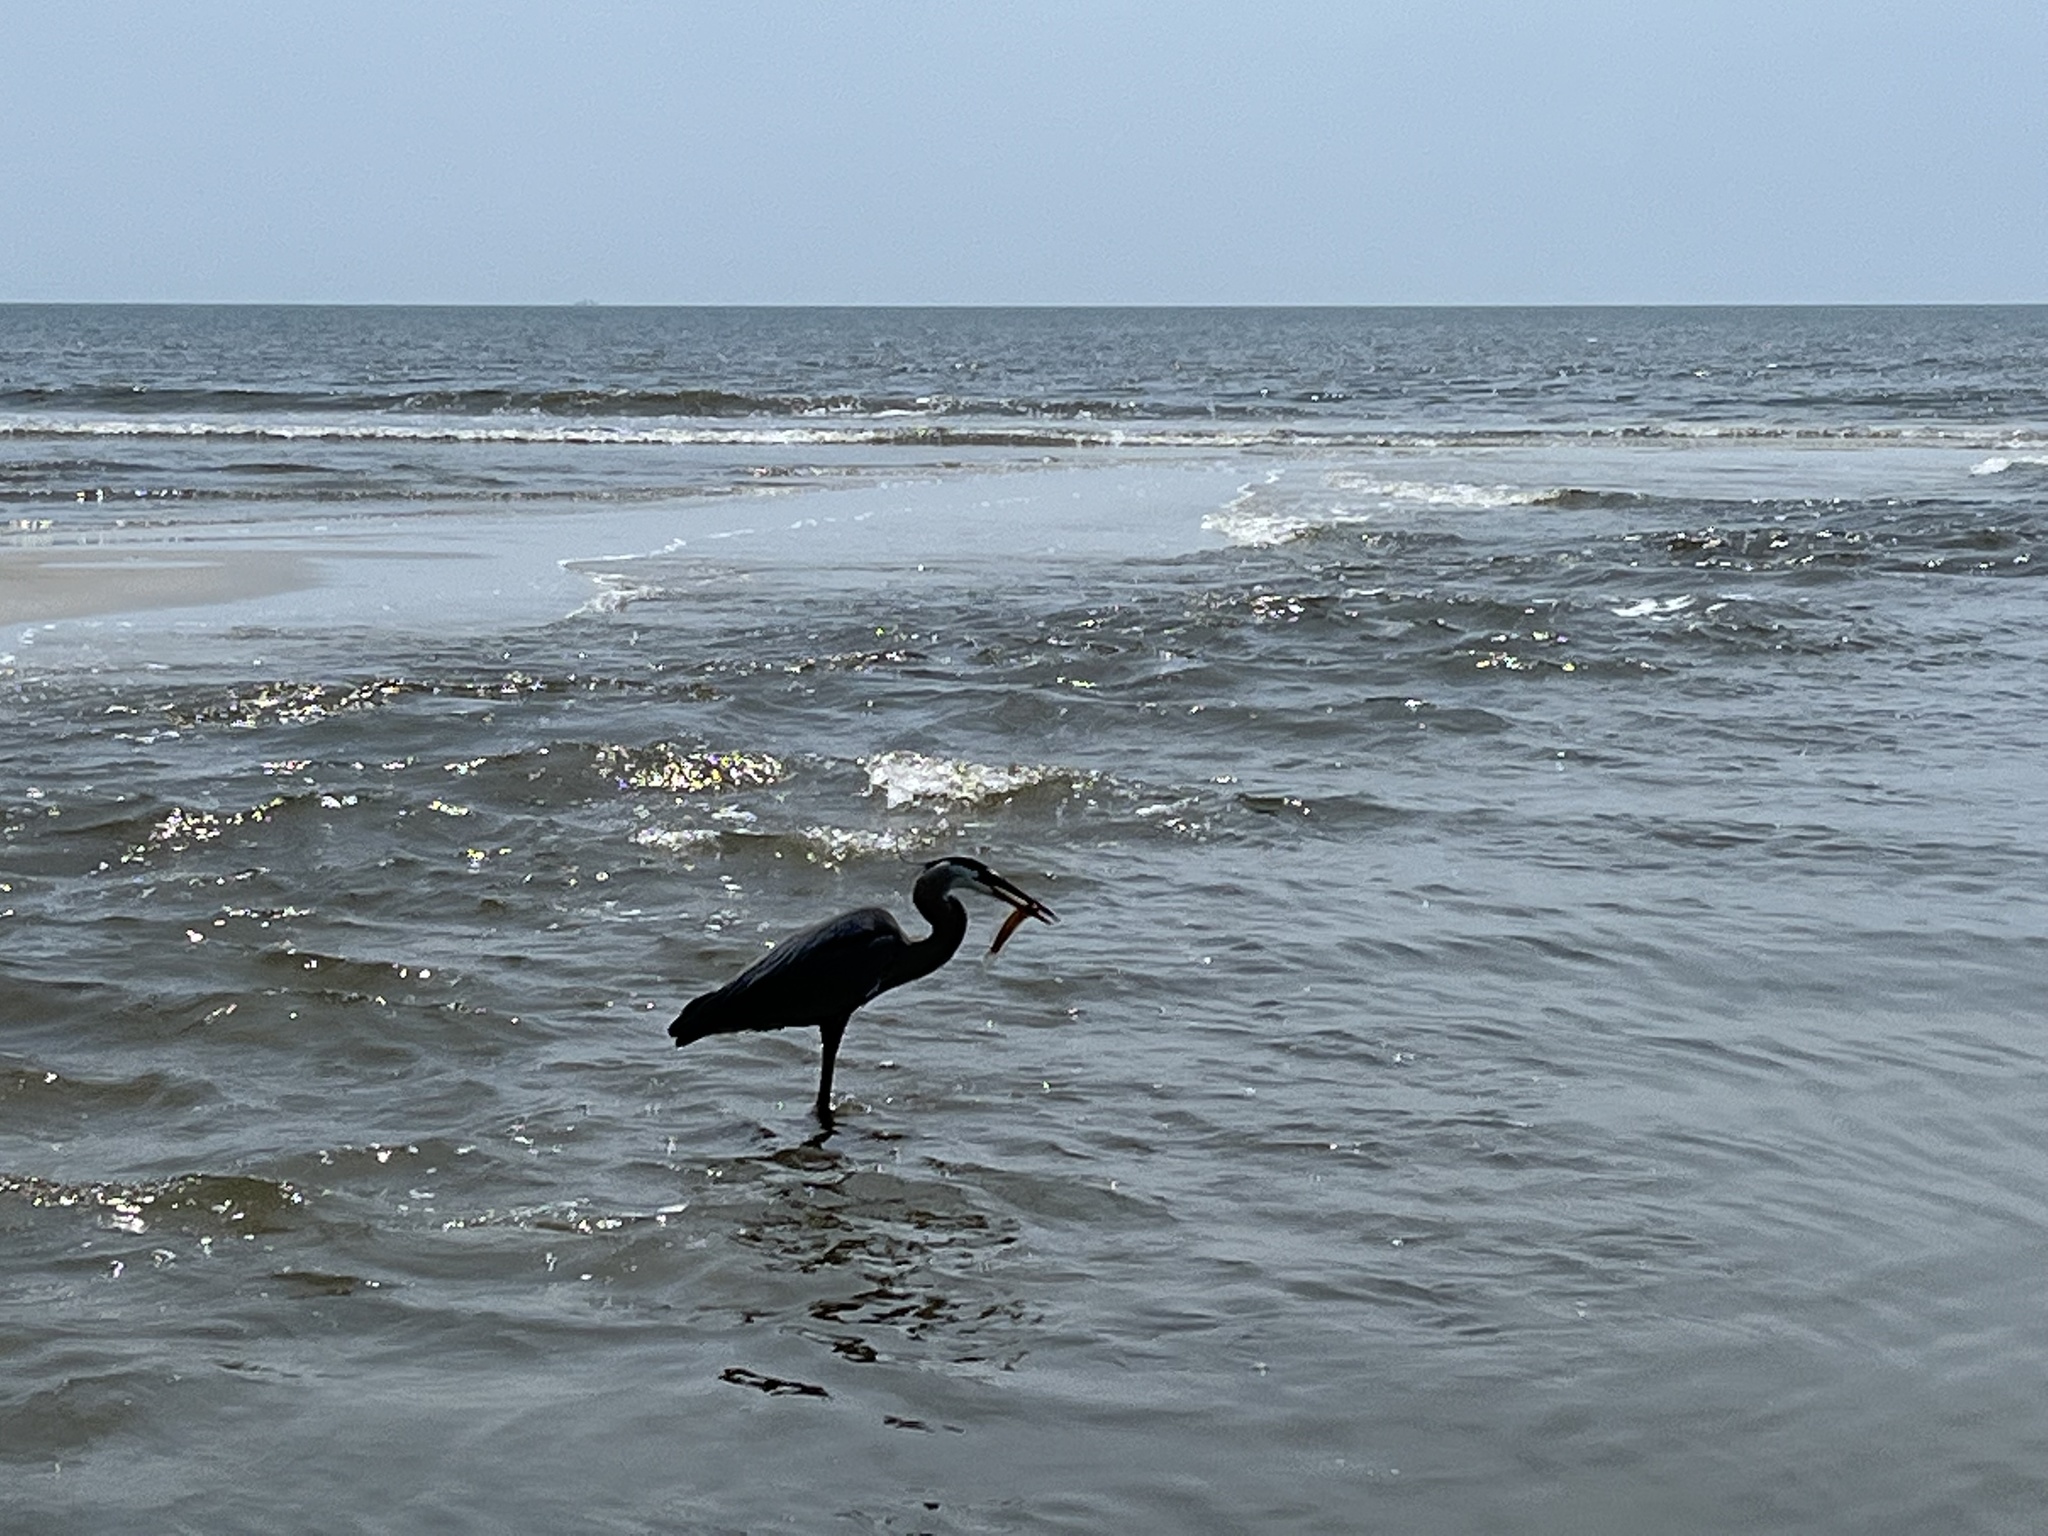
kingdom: Animalia
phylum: Chordata
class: Aves
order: Pelecaniformes
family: Ardeidae
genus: Ardea
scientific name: Ardea herodias
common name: Great blue heron
